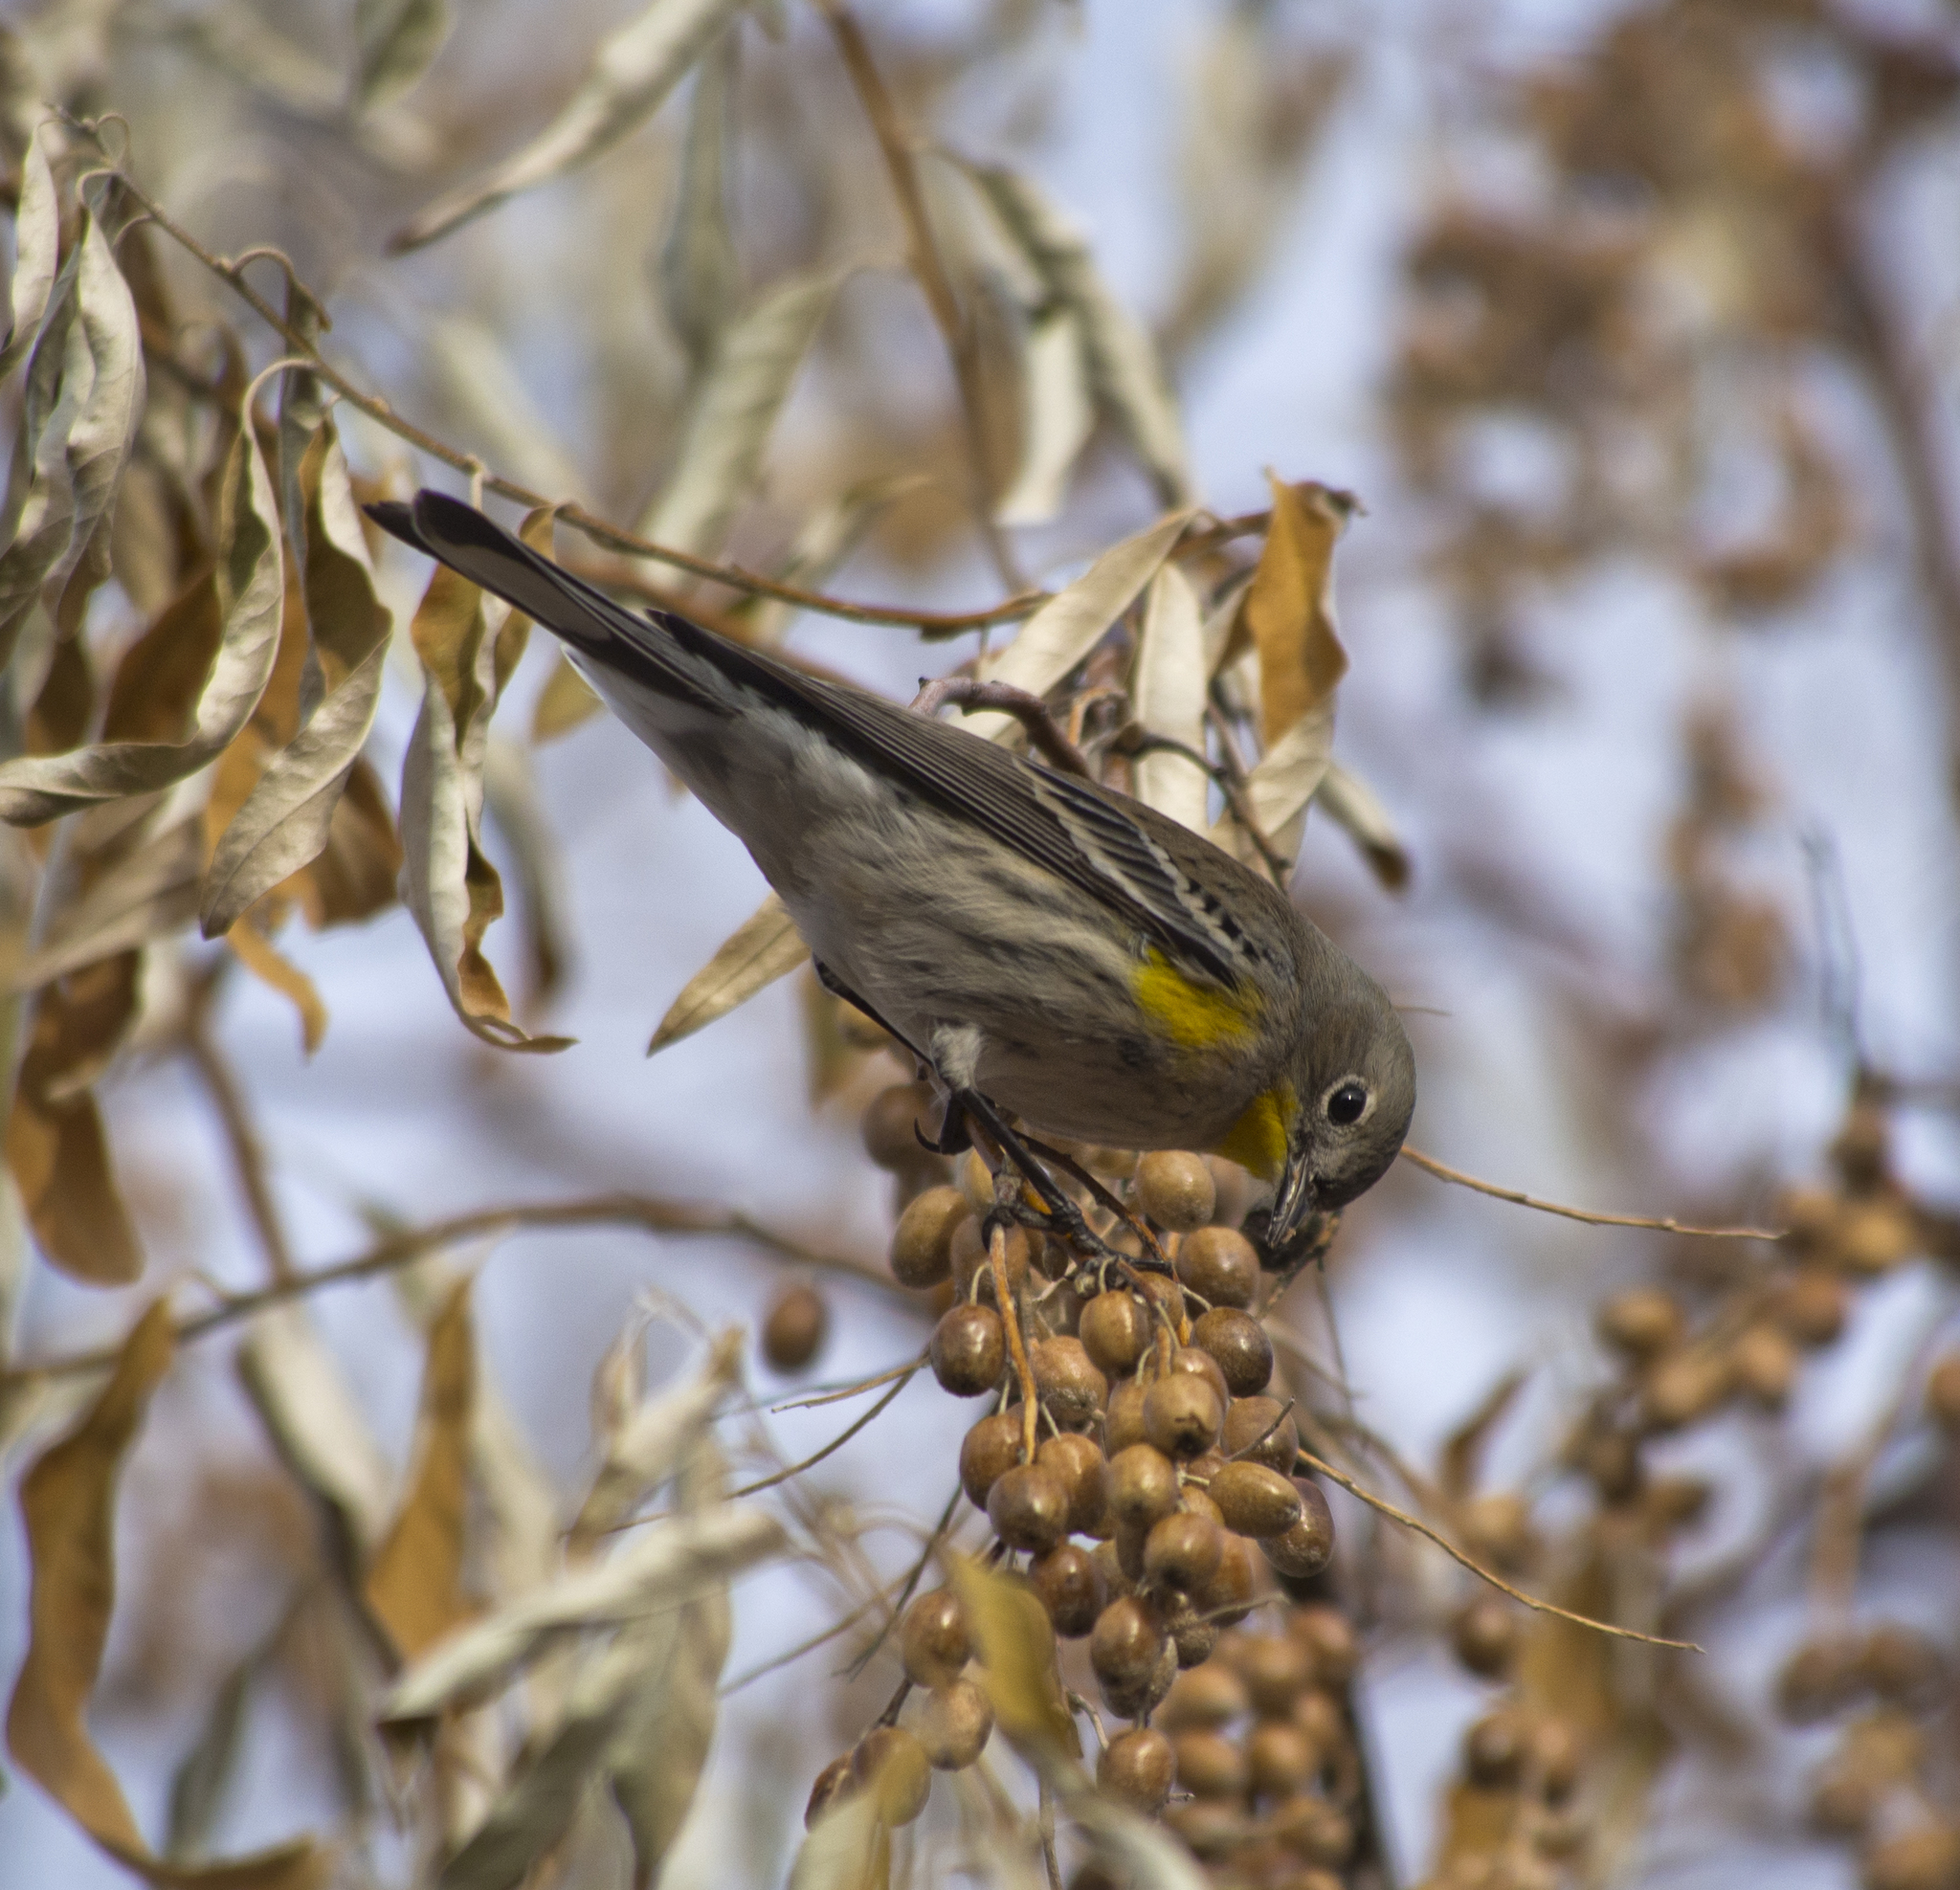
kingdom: Animalia
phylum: Chordata
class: Aves
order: Passeriformes
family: Parulidae
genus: Setophaga
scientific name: Setophaga coronata
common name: Myrtle warbler
